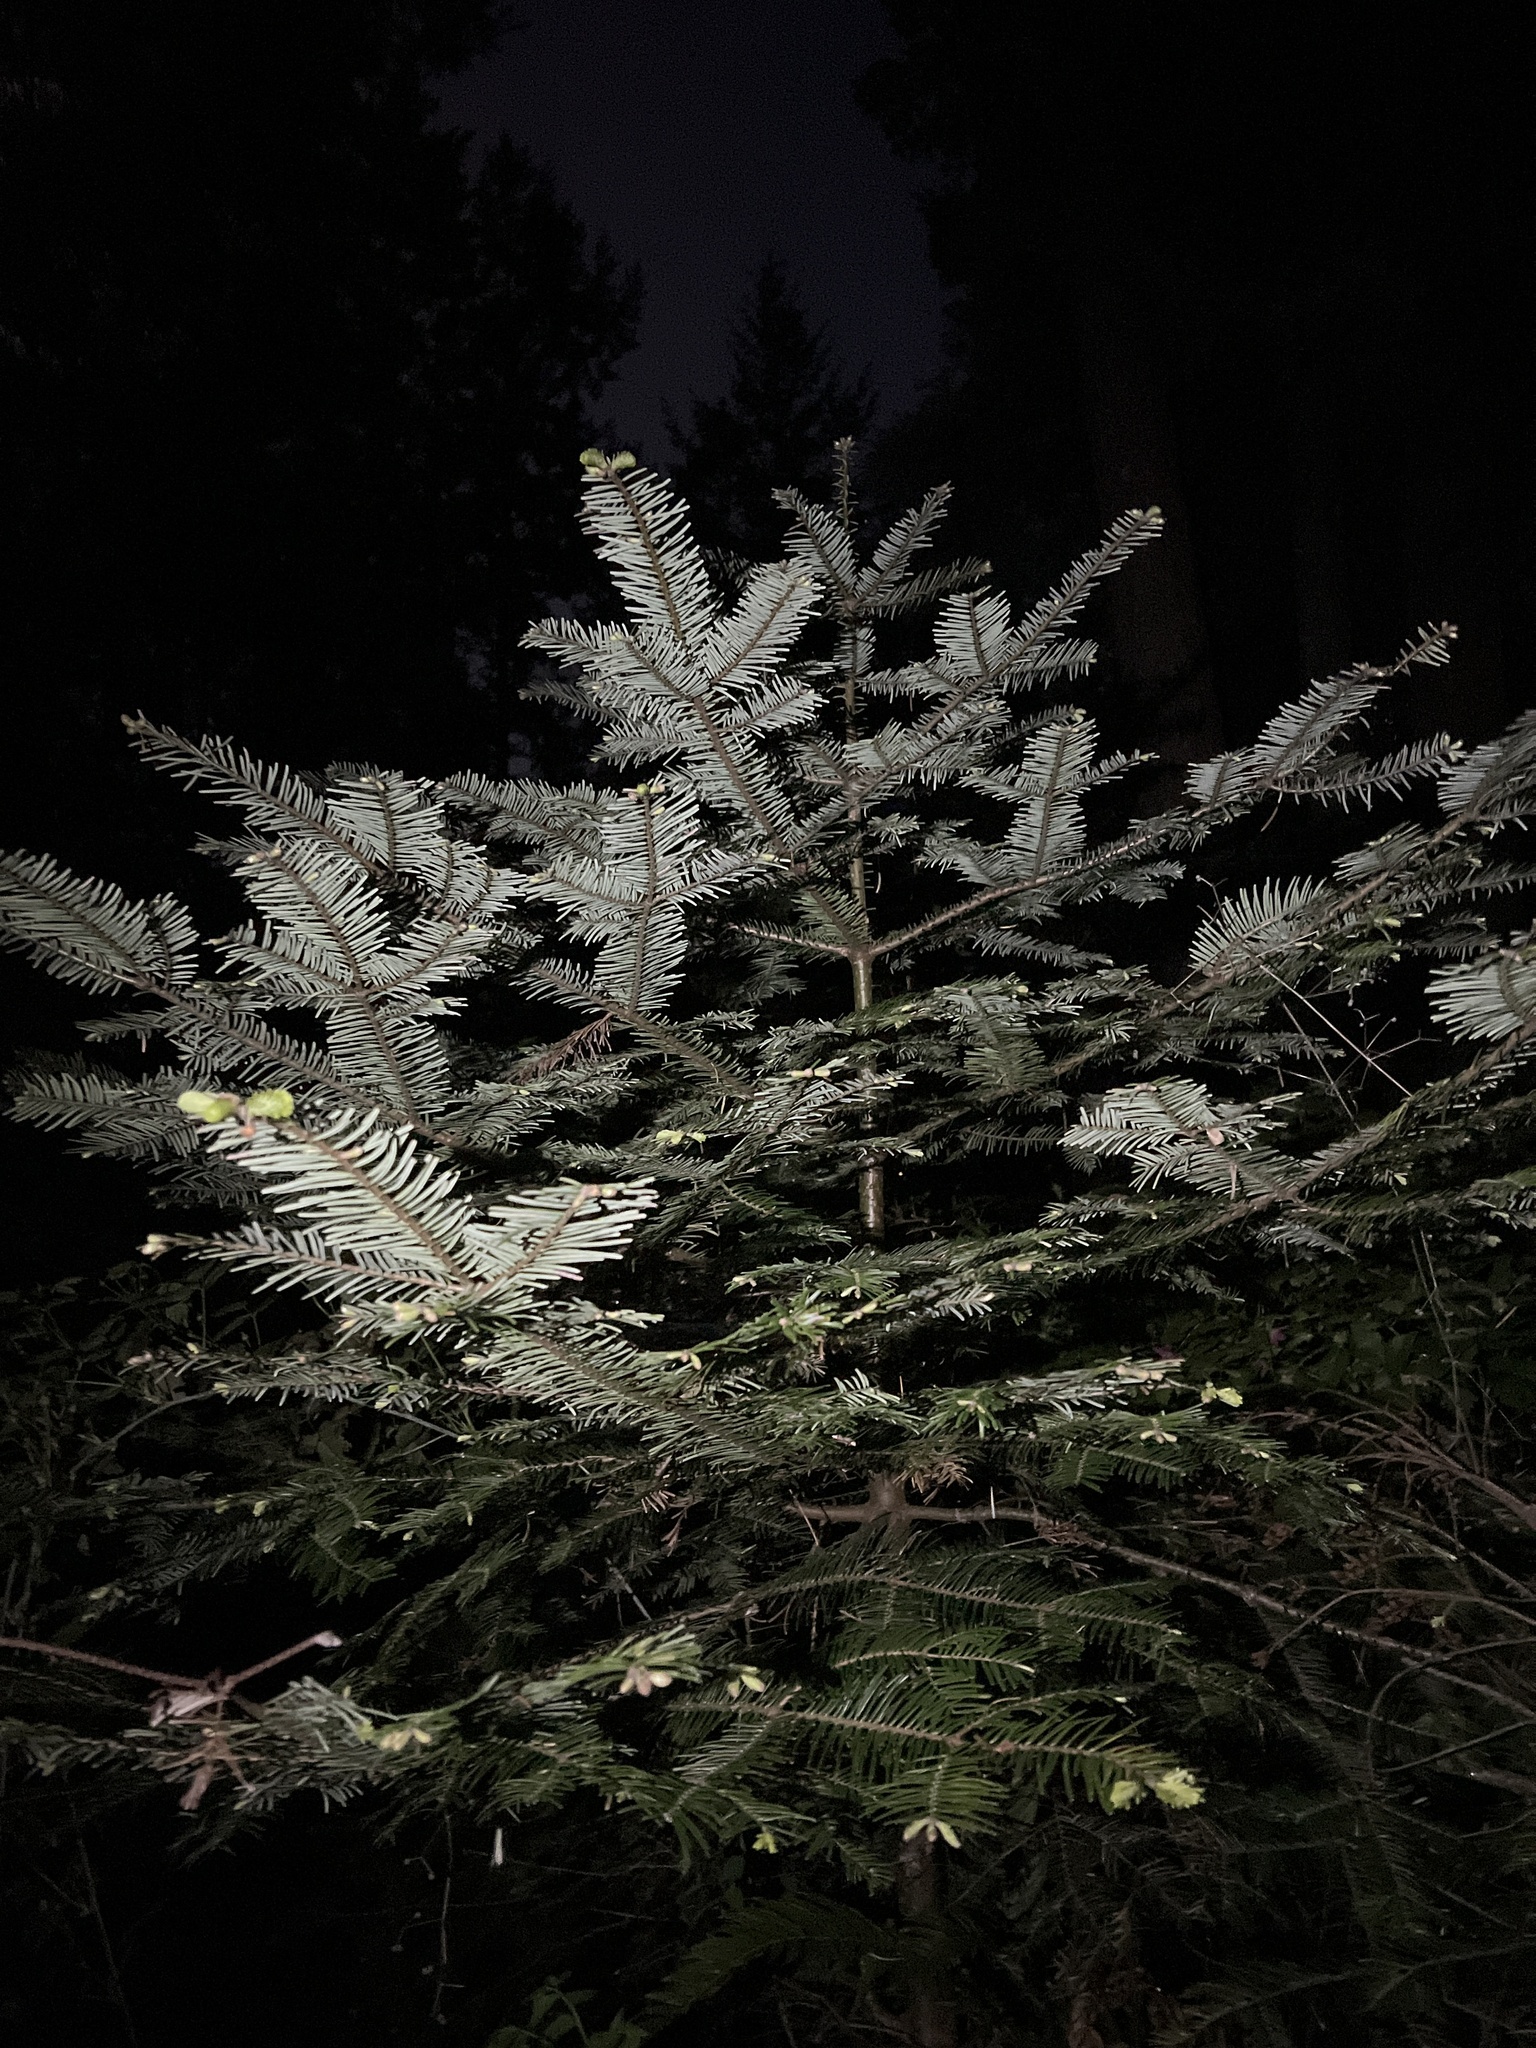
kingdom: Plantae
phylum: Tracheophyta
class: Pinopsida
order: Pinales
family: Pinaceae
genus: Abies
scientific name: Abies grandis
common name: Giant fir
